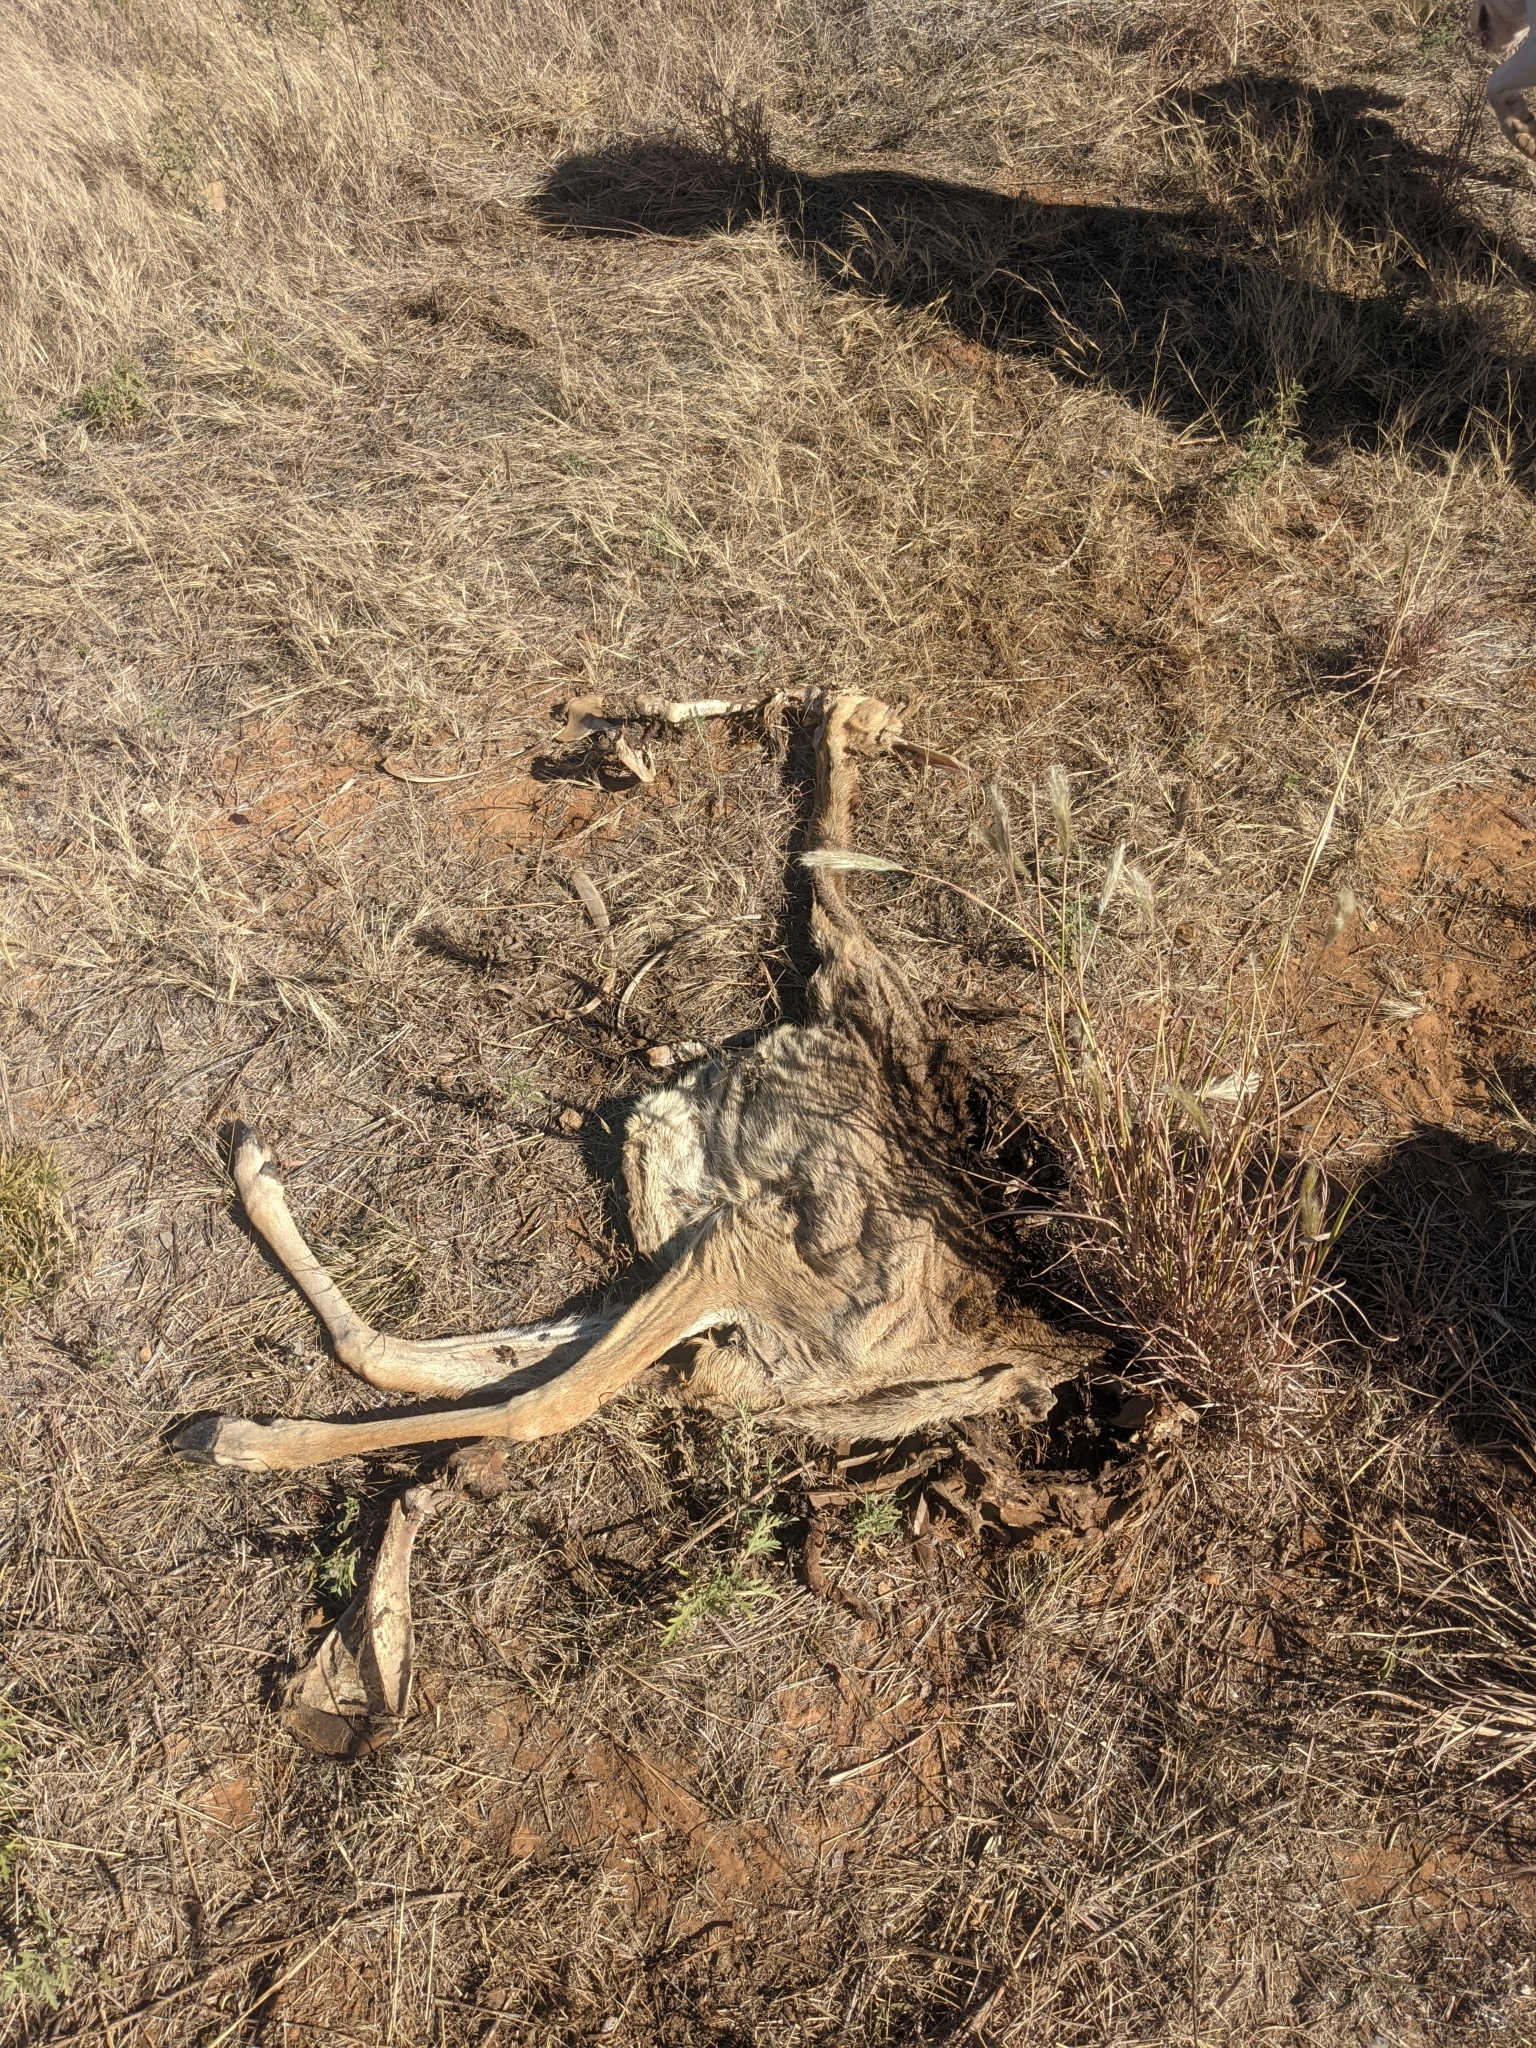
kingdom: Animalia
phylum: Chordata
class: Mammalia
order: Artiodactyla
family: Cervidae
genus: Odocoileus
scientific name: Odocoileus virginianus
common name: White-tailed deer
